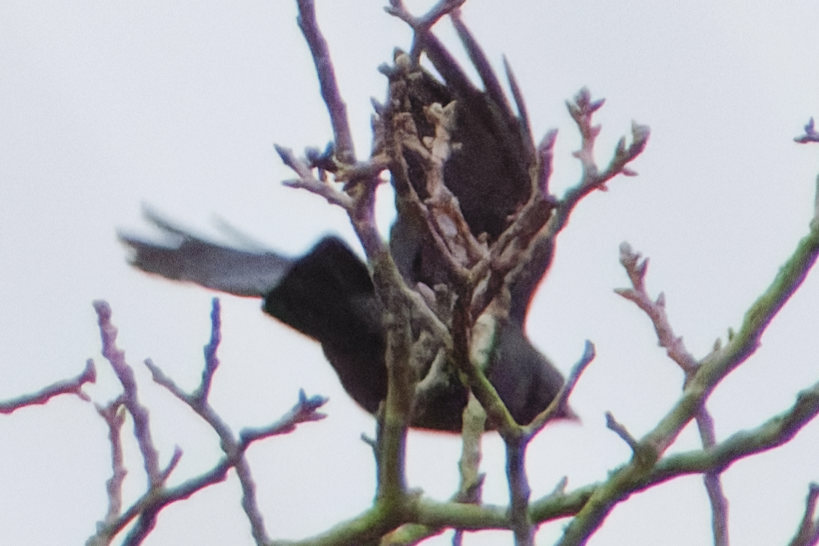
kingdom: Animalia
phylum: Chordata
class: Aves
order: Passeriformes
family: Corvidae
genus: Coloeus
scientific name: Coloeus monedula
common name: Western jackdaw
